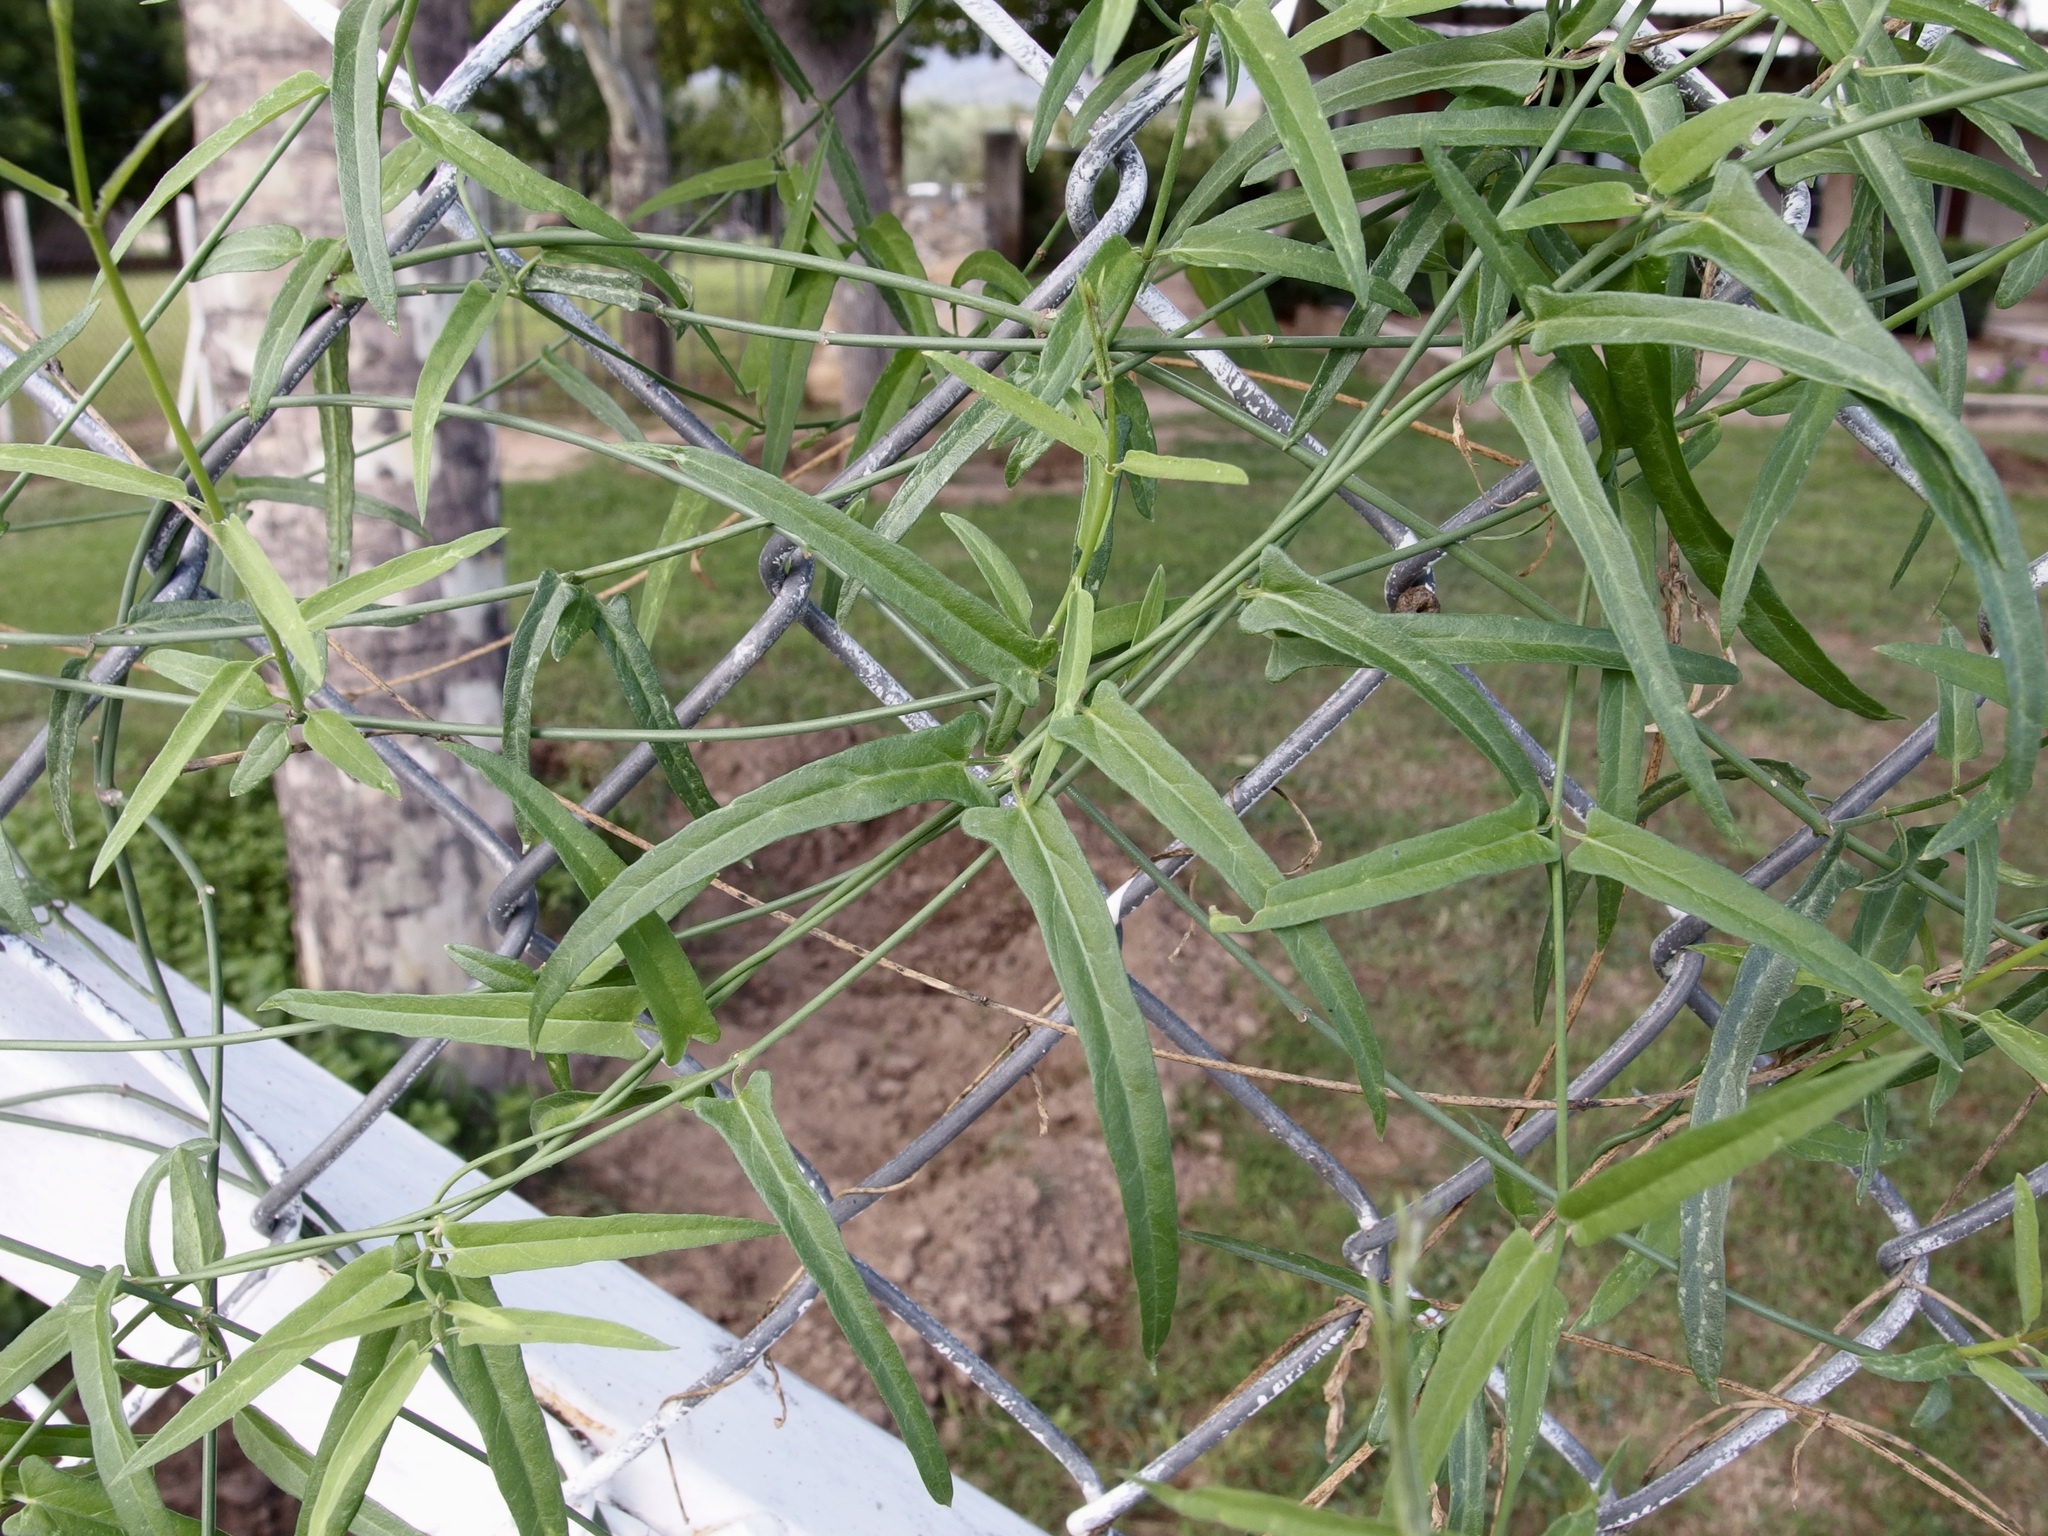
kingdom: Plantae
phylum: Tracheophyta
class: Magnoliopsida
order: Gentianales
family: Apocynaceae
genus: Funastrum
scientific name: Funastrum heterophyllum
